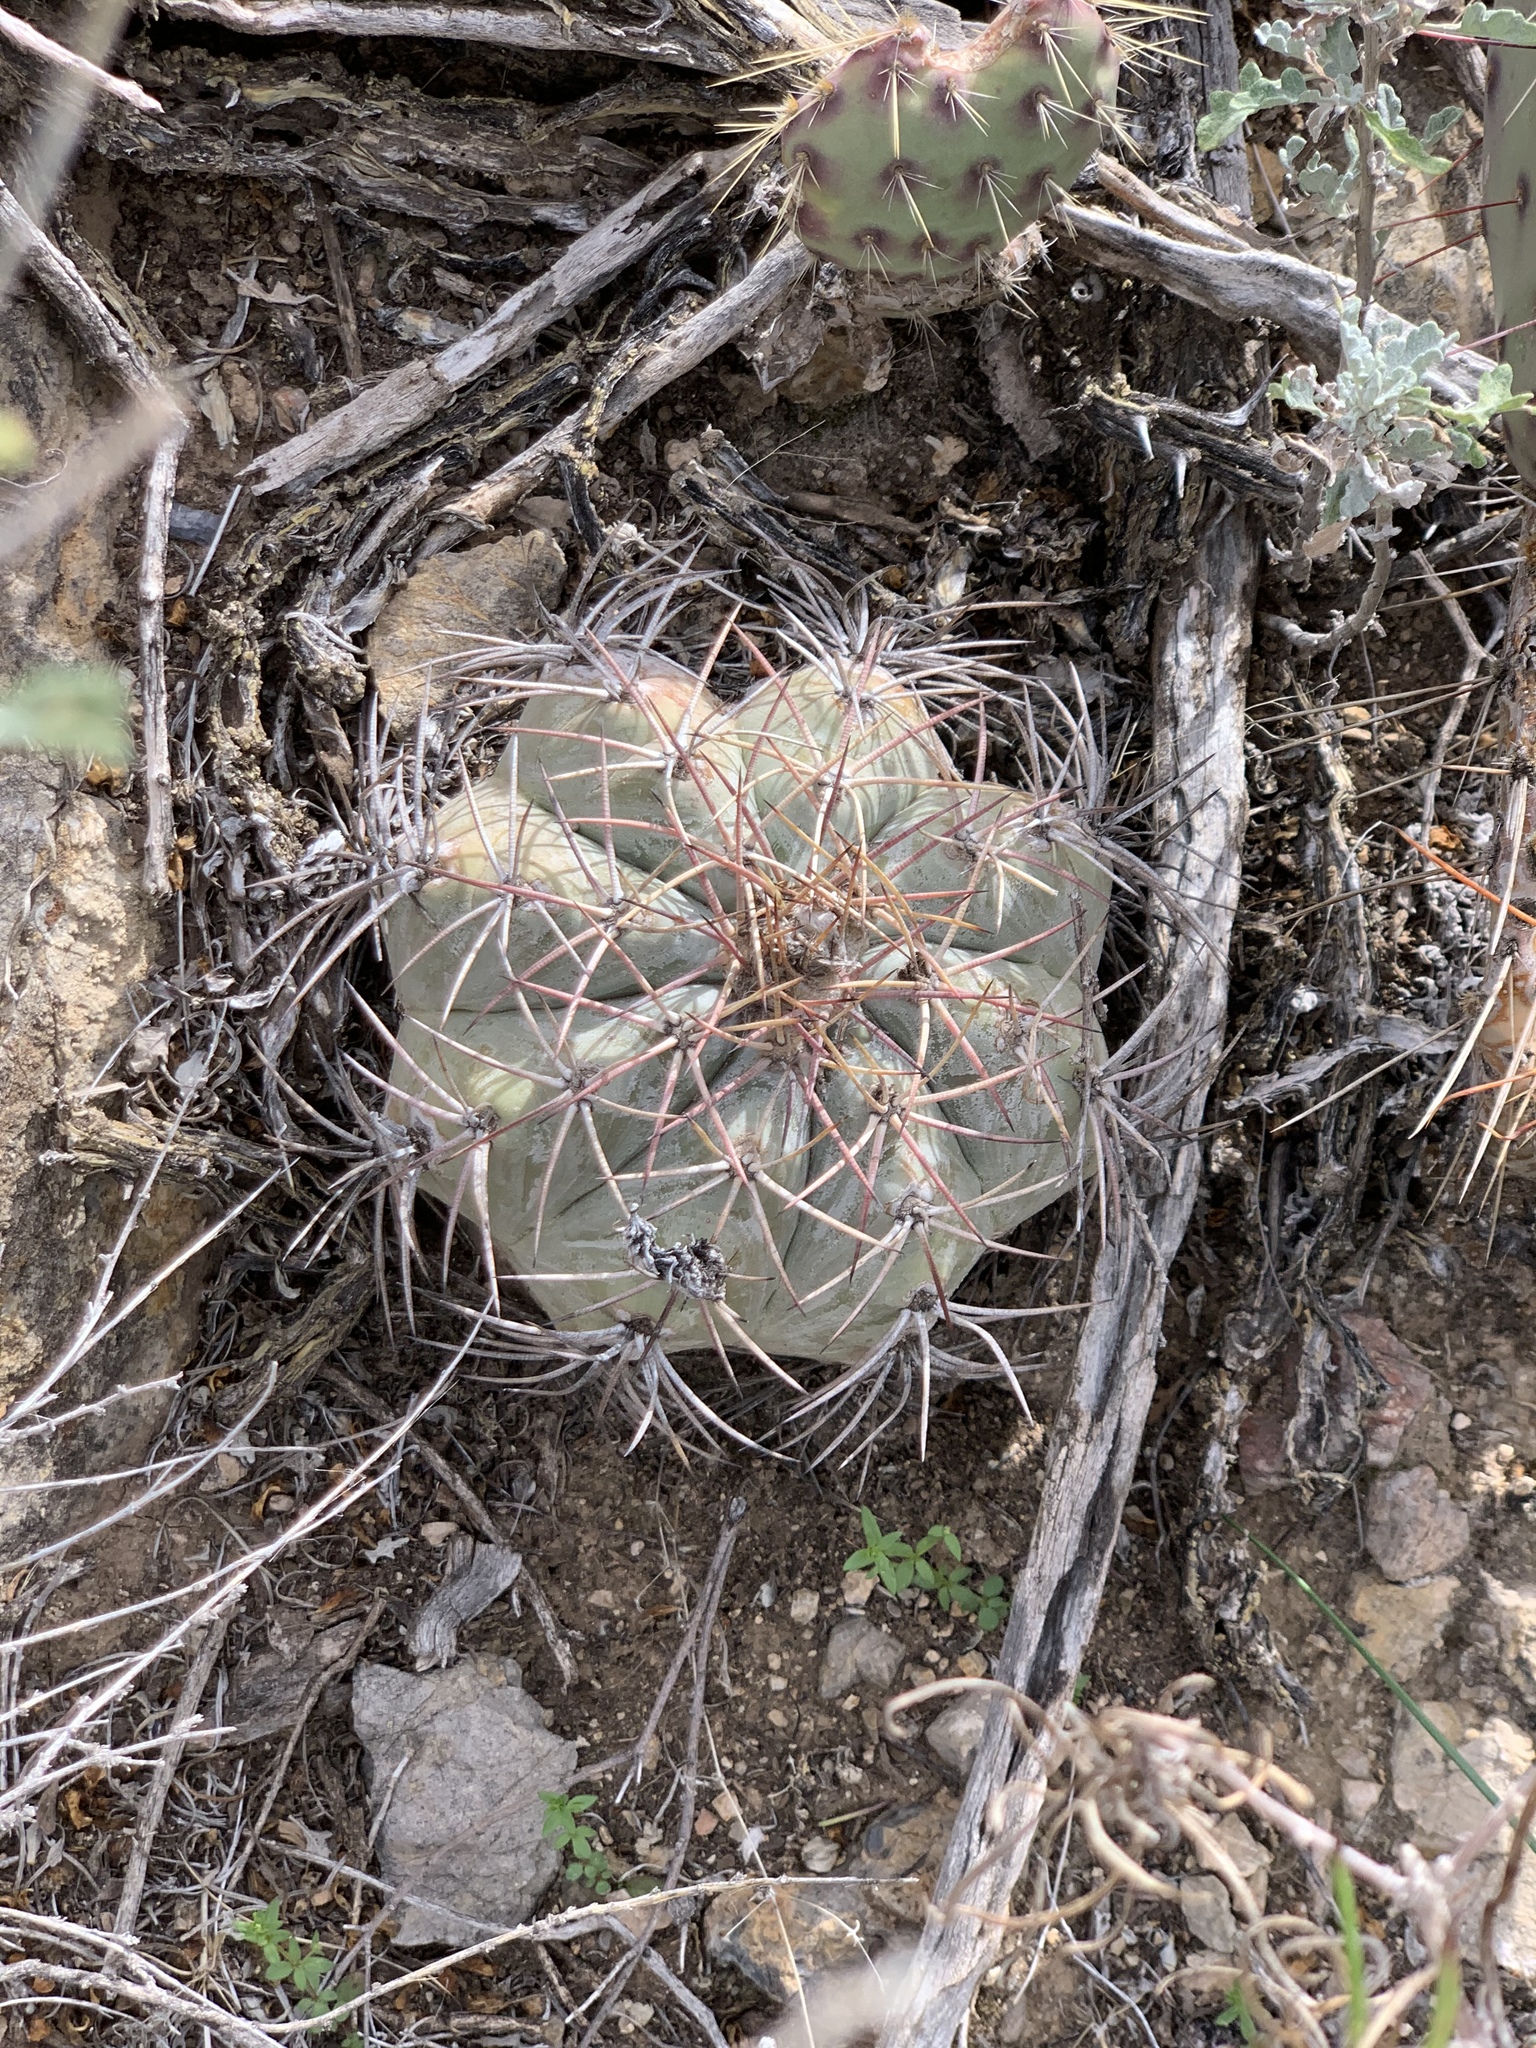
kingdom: Plantae
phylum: Tracheophyta
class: Magnoliopsida
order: Caryophyllales
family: Cactaceae
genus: Echinocactus
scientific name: Echinocactus horizonthalonius
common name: Devilshead
